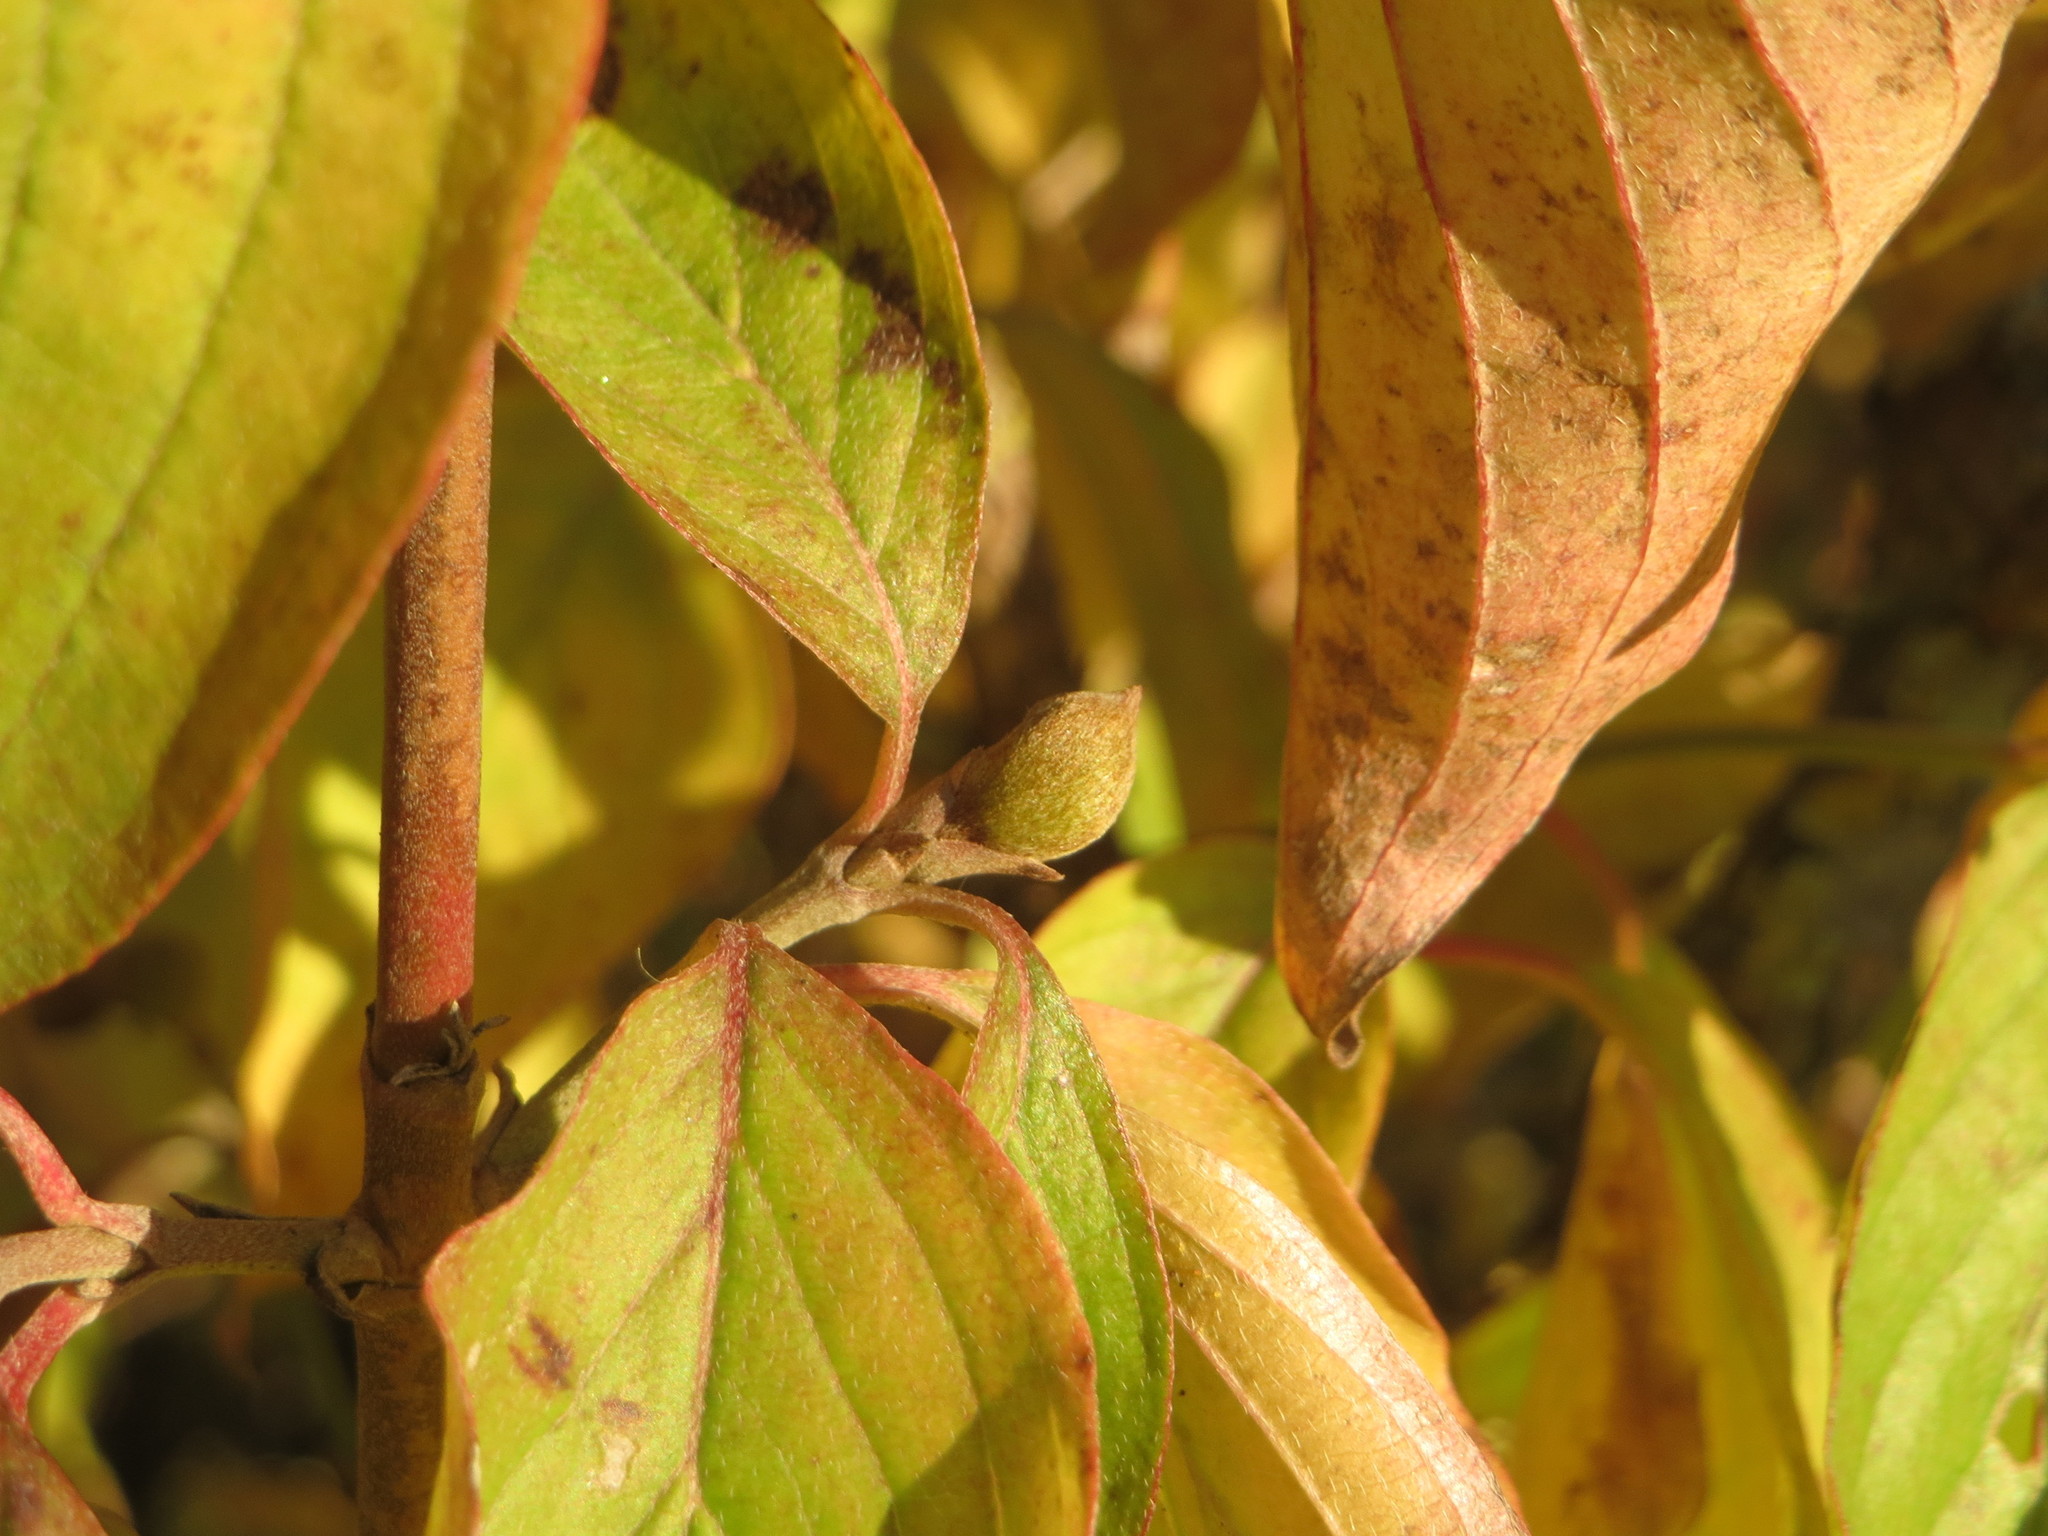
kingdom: Plantae
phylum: Tracheophyta
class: Magnoliopsida
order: Cornales
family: Cornaceae
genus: Cornus
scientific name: Cornus mas
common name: Cornelian-cherry
